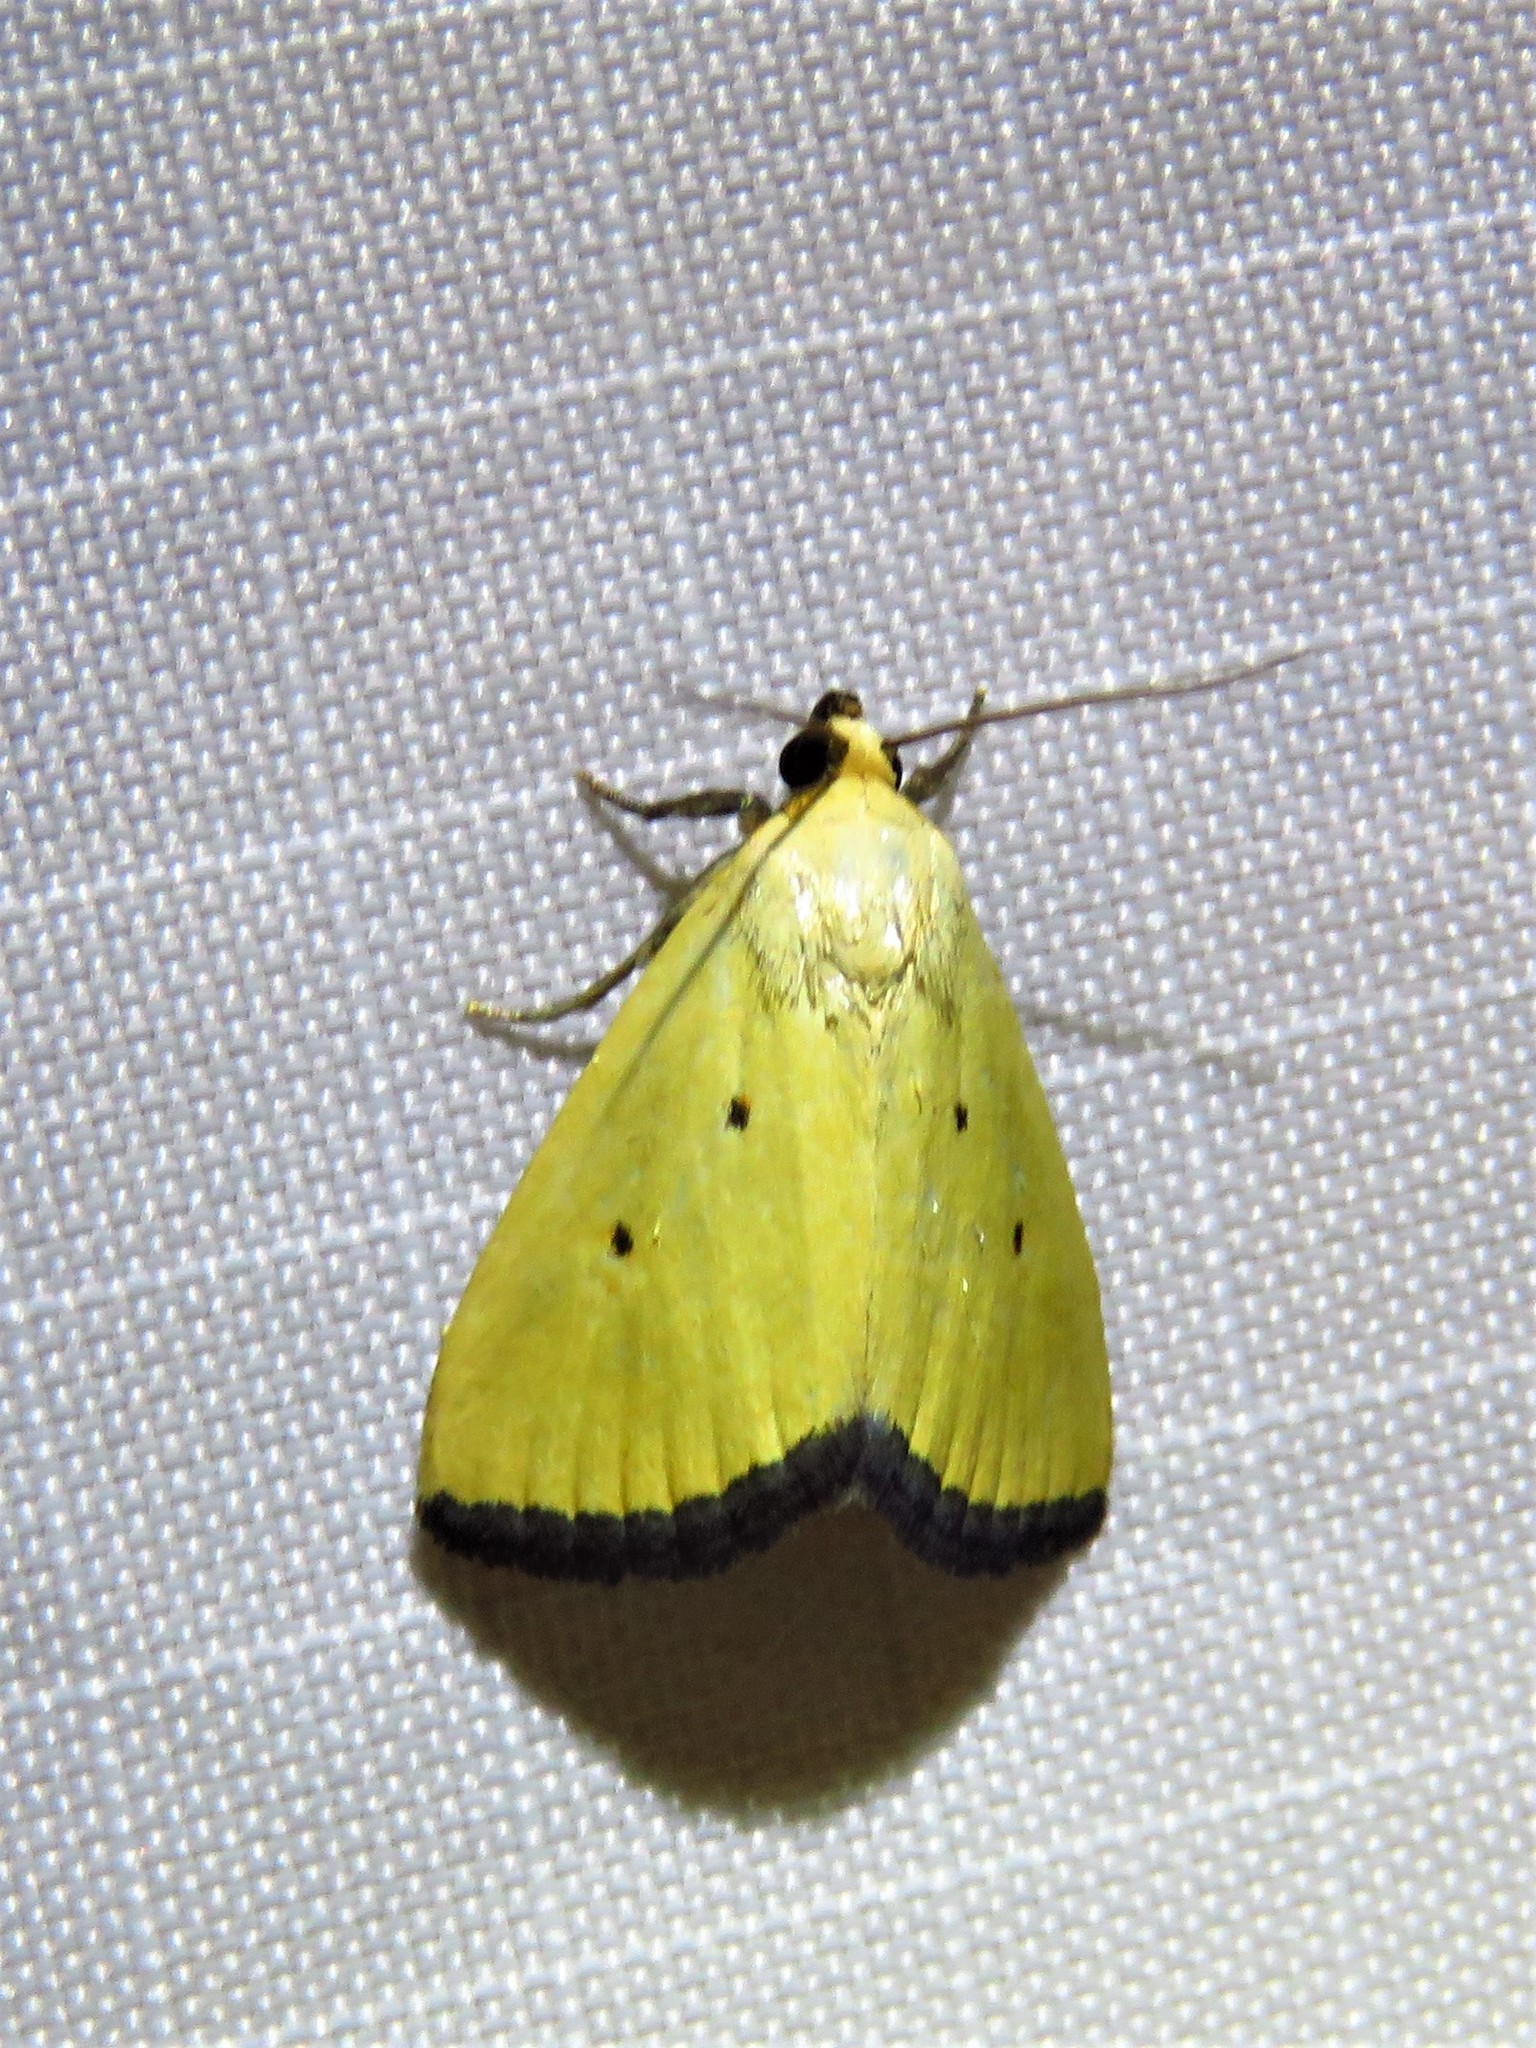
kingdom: Animalia
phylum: Arthropoda
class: Insecta
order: Lepidoptera
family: Noctuidae
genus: Marimatha
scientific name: Marimatha nigrofimbria
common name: Black-bordered lemon moth
